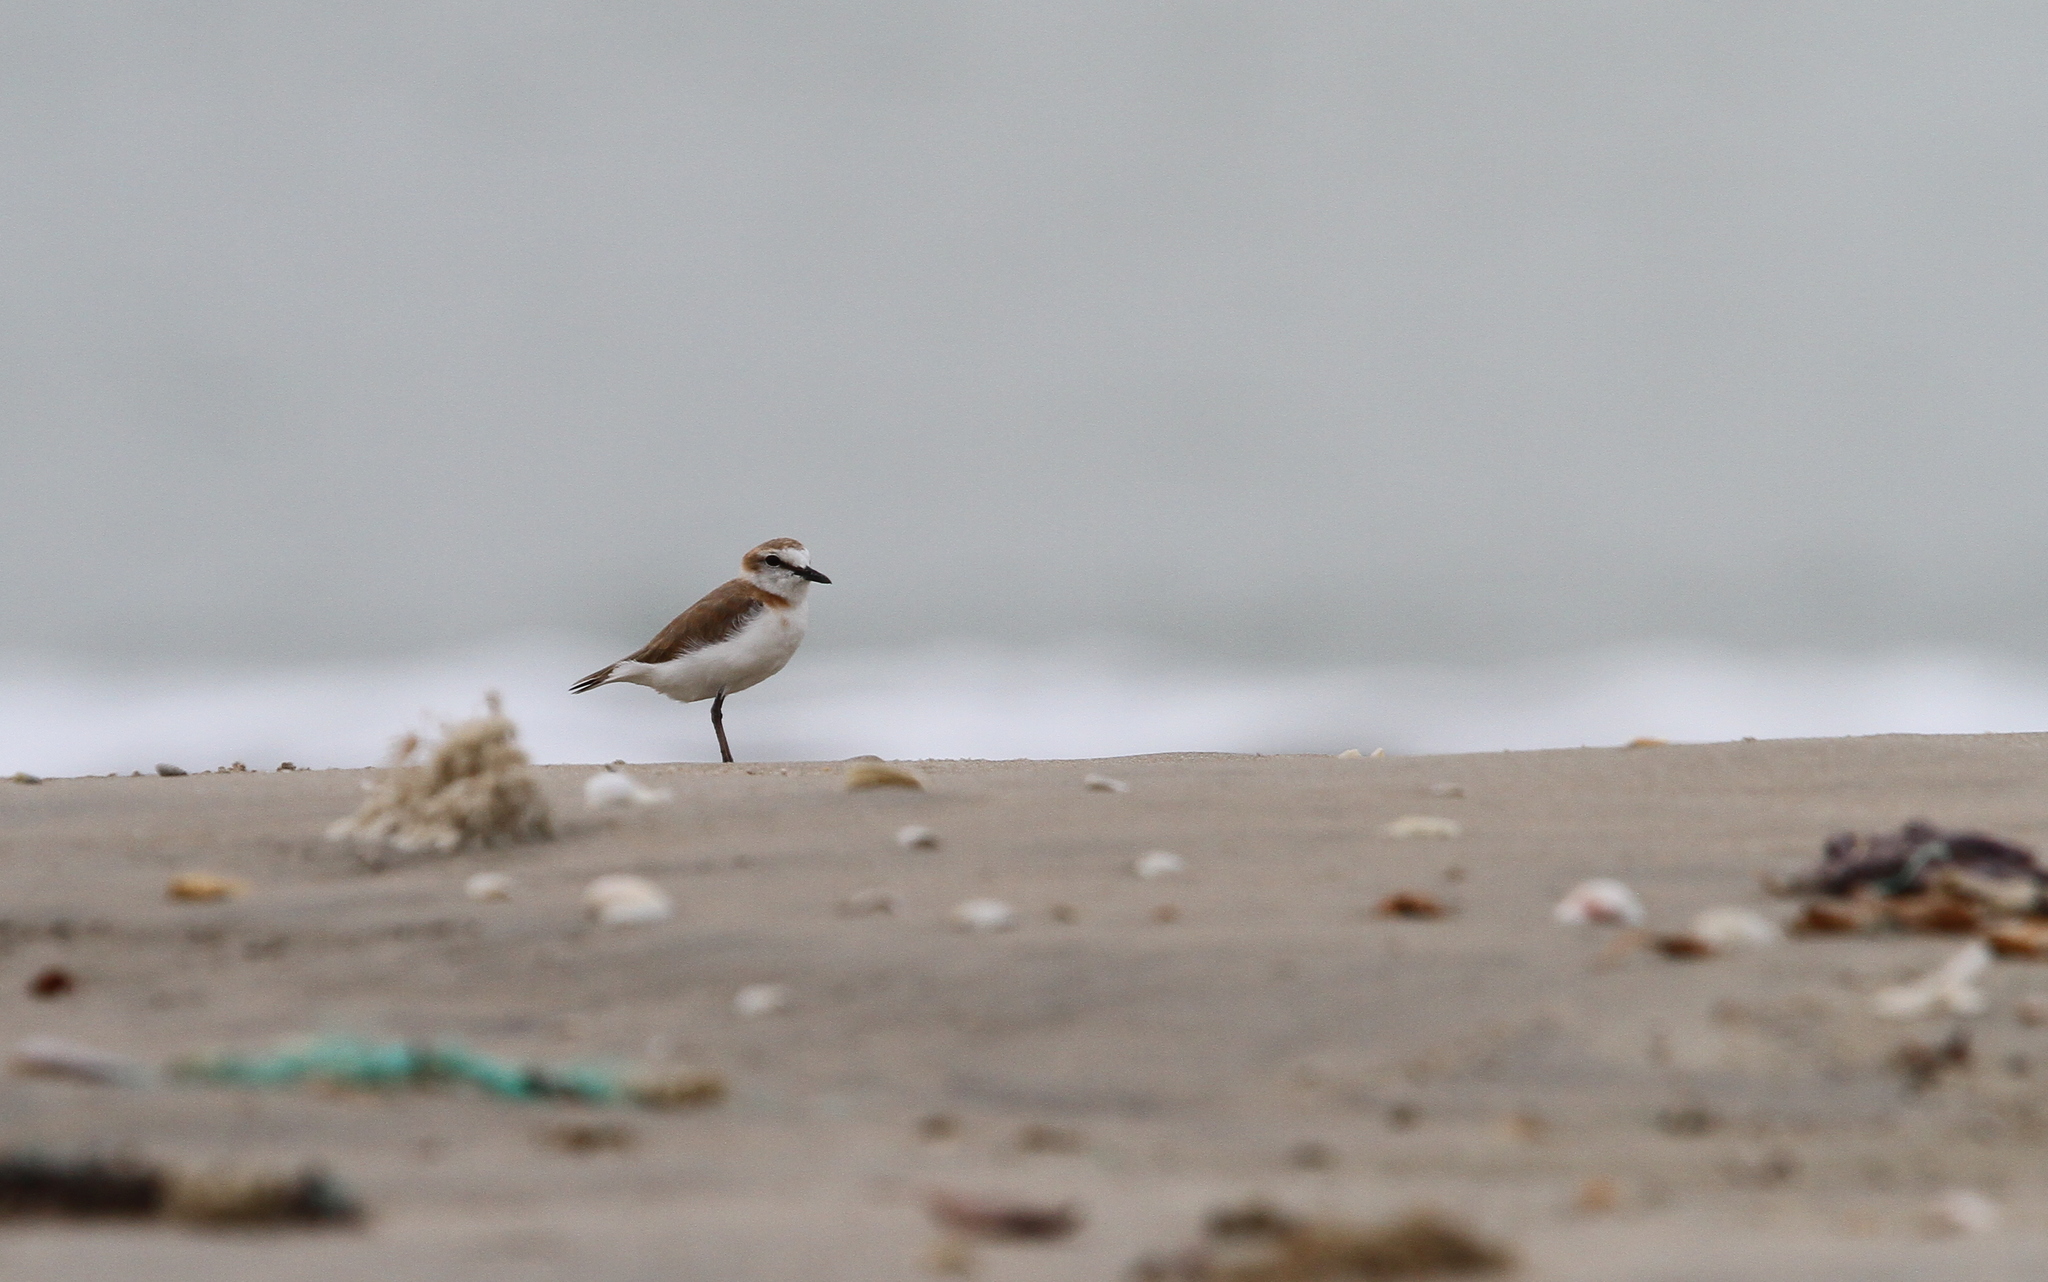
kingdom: Animalia
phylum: Chordata
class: Aves
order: Charadriiformes
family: Charadriidae
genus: Anarhynchus
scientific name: Anarhynchus
